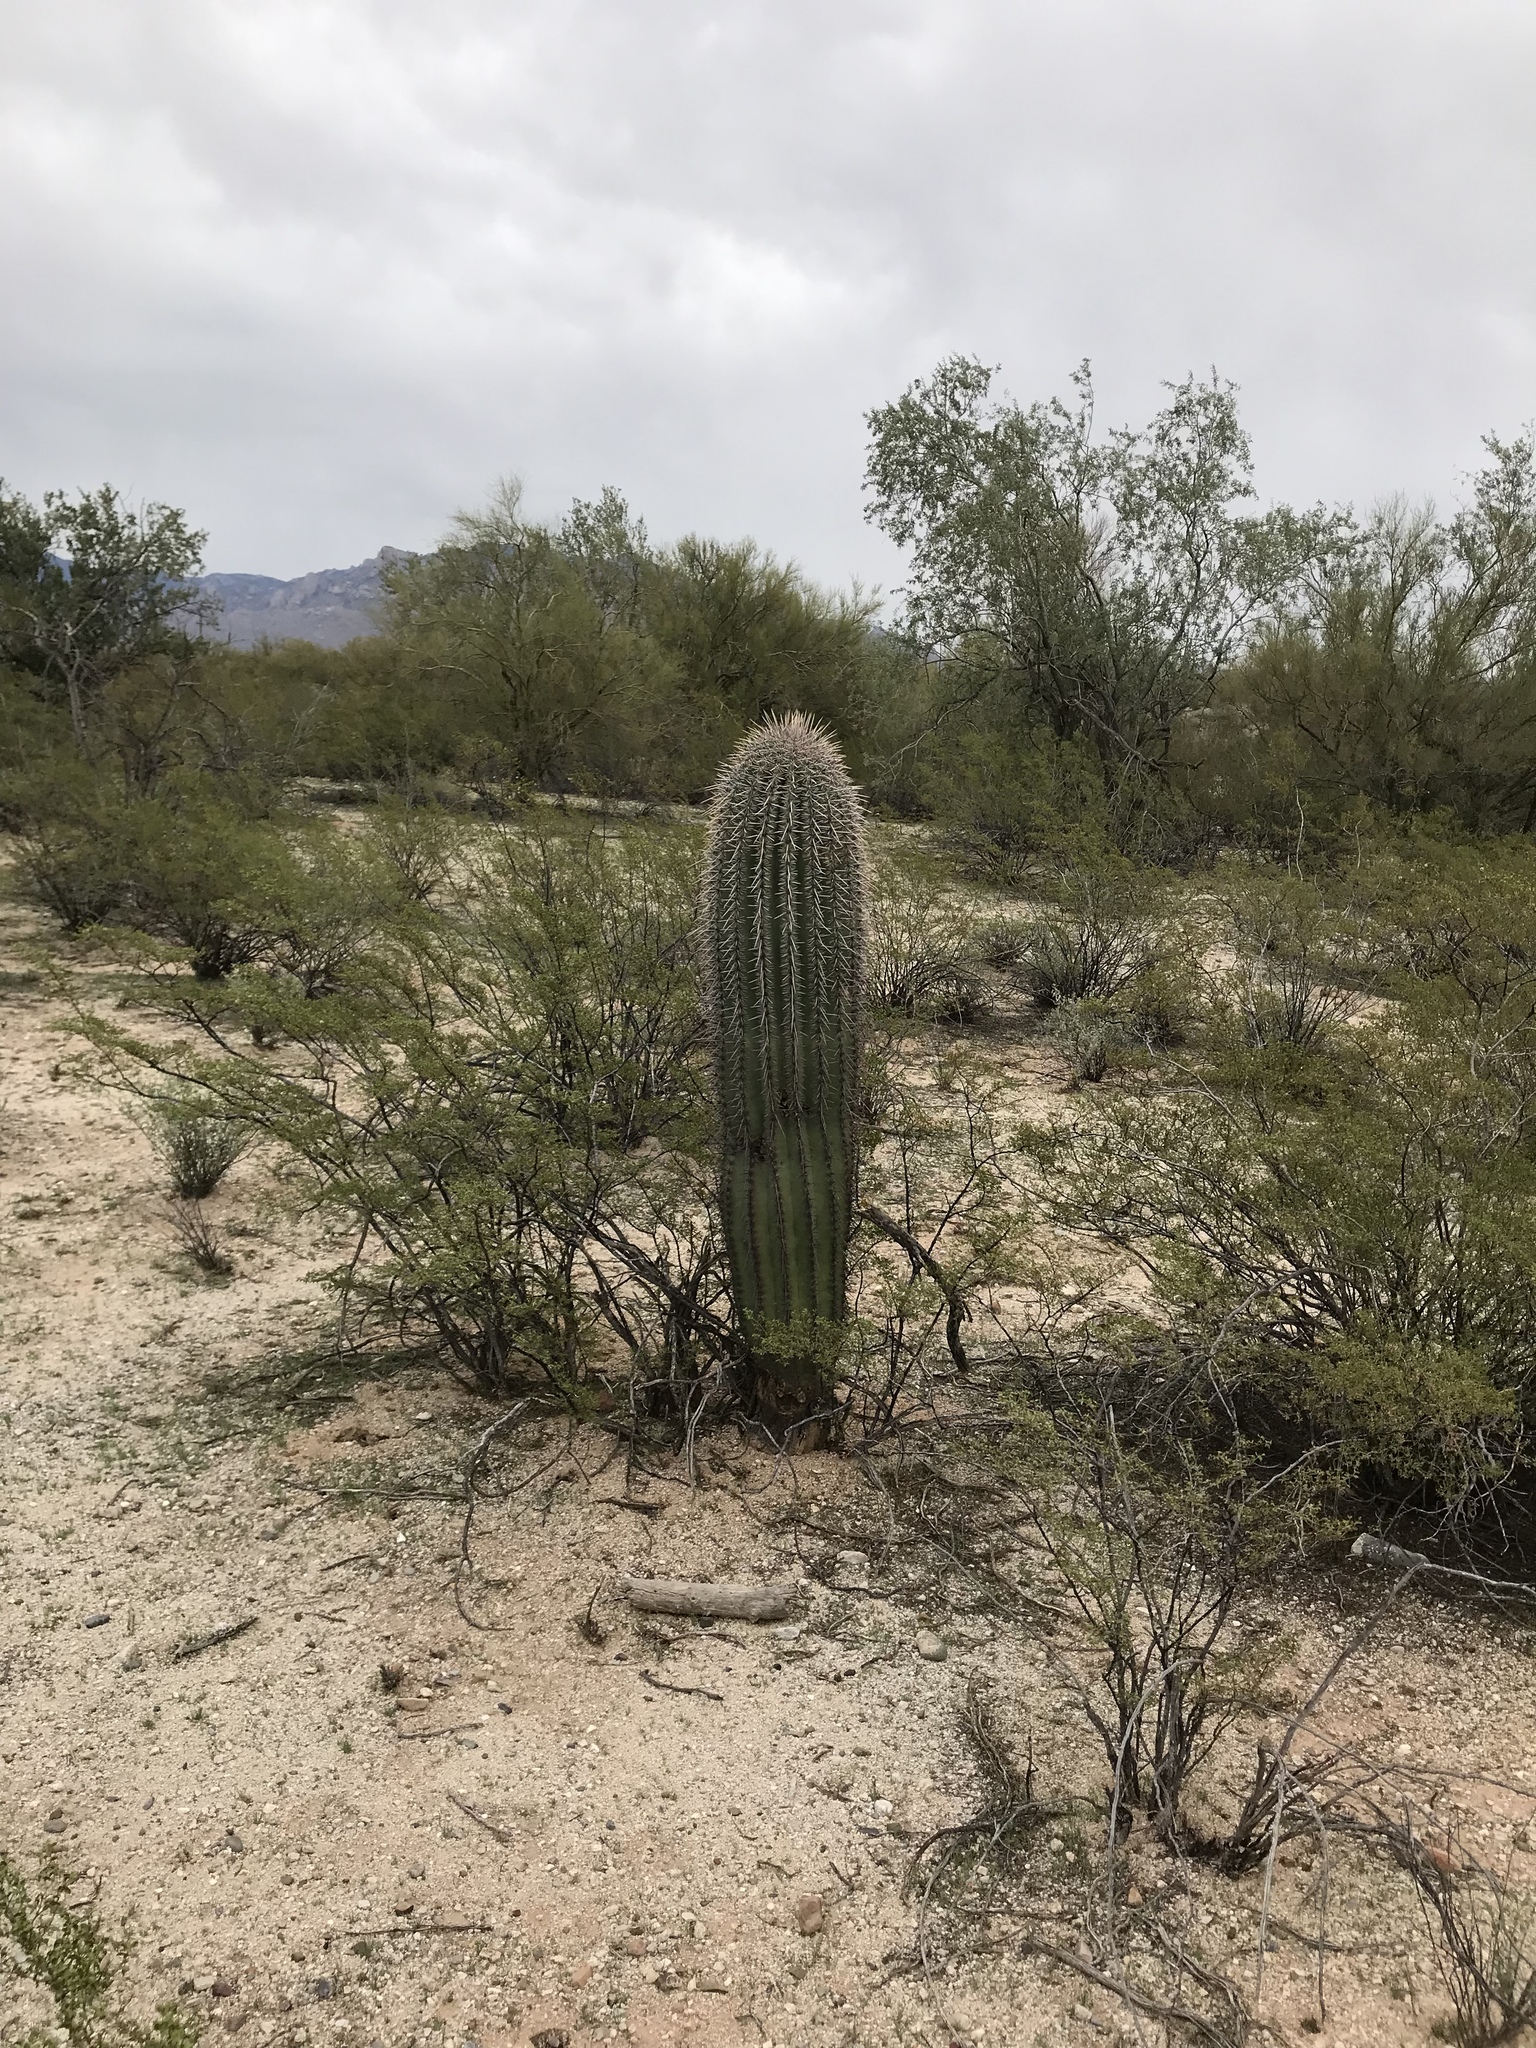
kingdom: Plantae
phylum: Tracheophyta
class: Magnoliopsida
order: Caryophyllales
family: Cactaceae
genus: Carnegiea
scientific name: Carnegiea gigantea
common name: Saguaro
